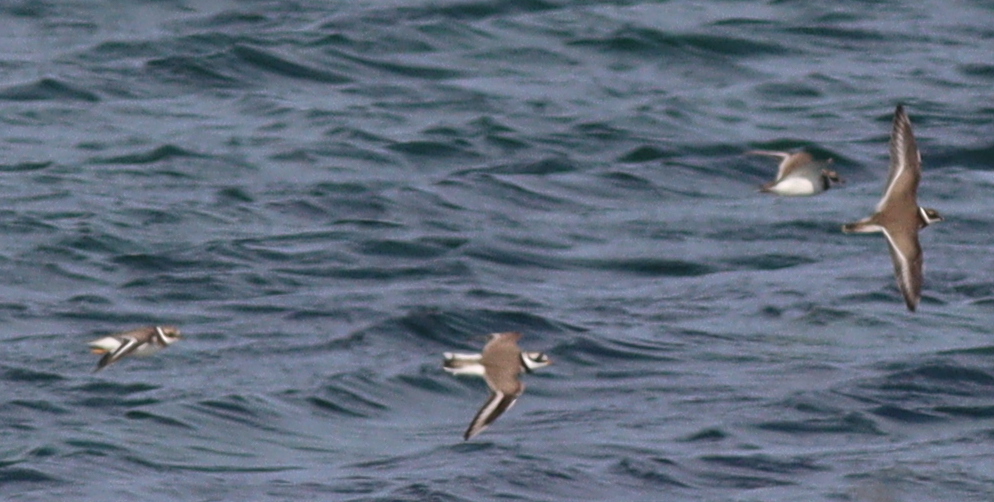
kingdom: Animalia
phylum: Chordata
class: Aves
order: Charadriiformes
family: Charadriidae
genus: Charadrius
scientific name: Charadrius hiaticula
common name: Common ringed plover
